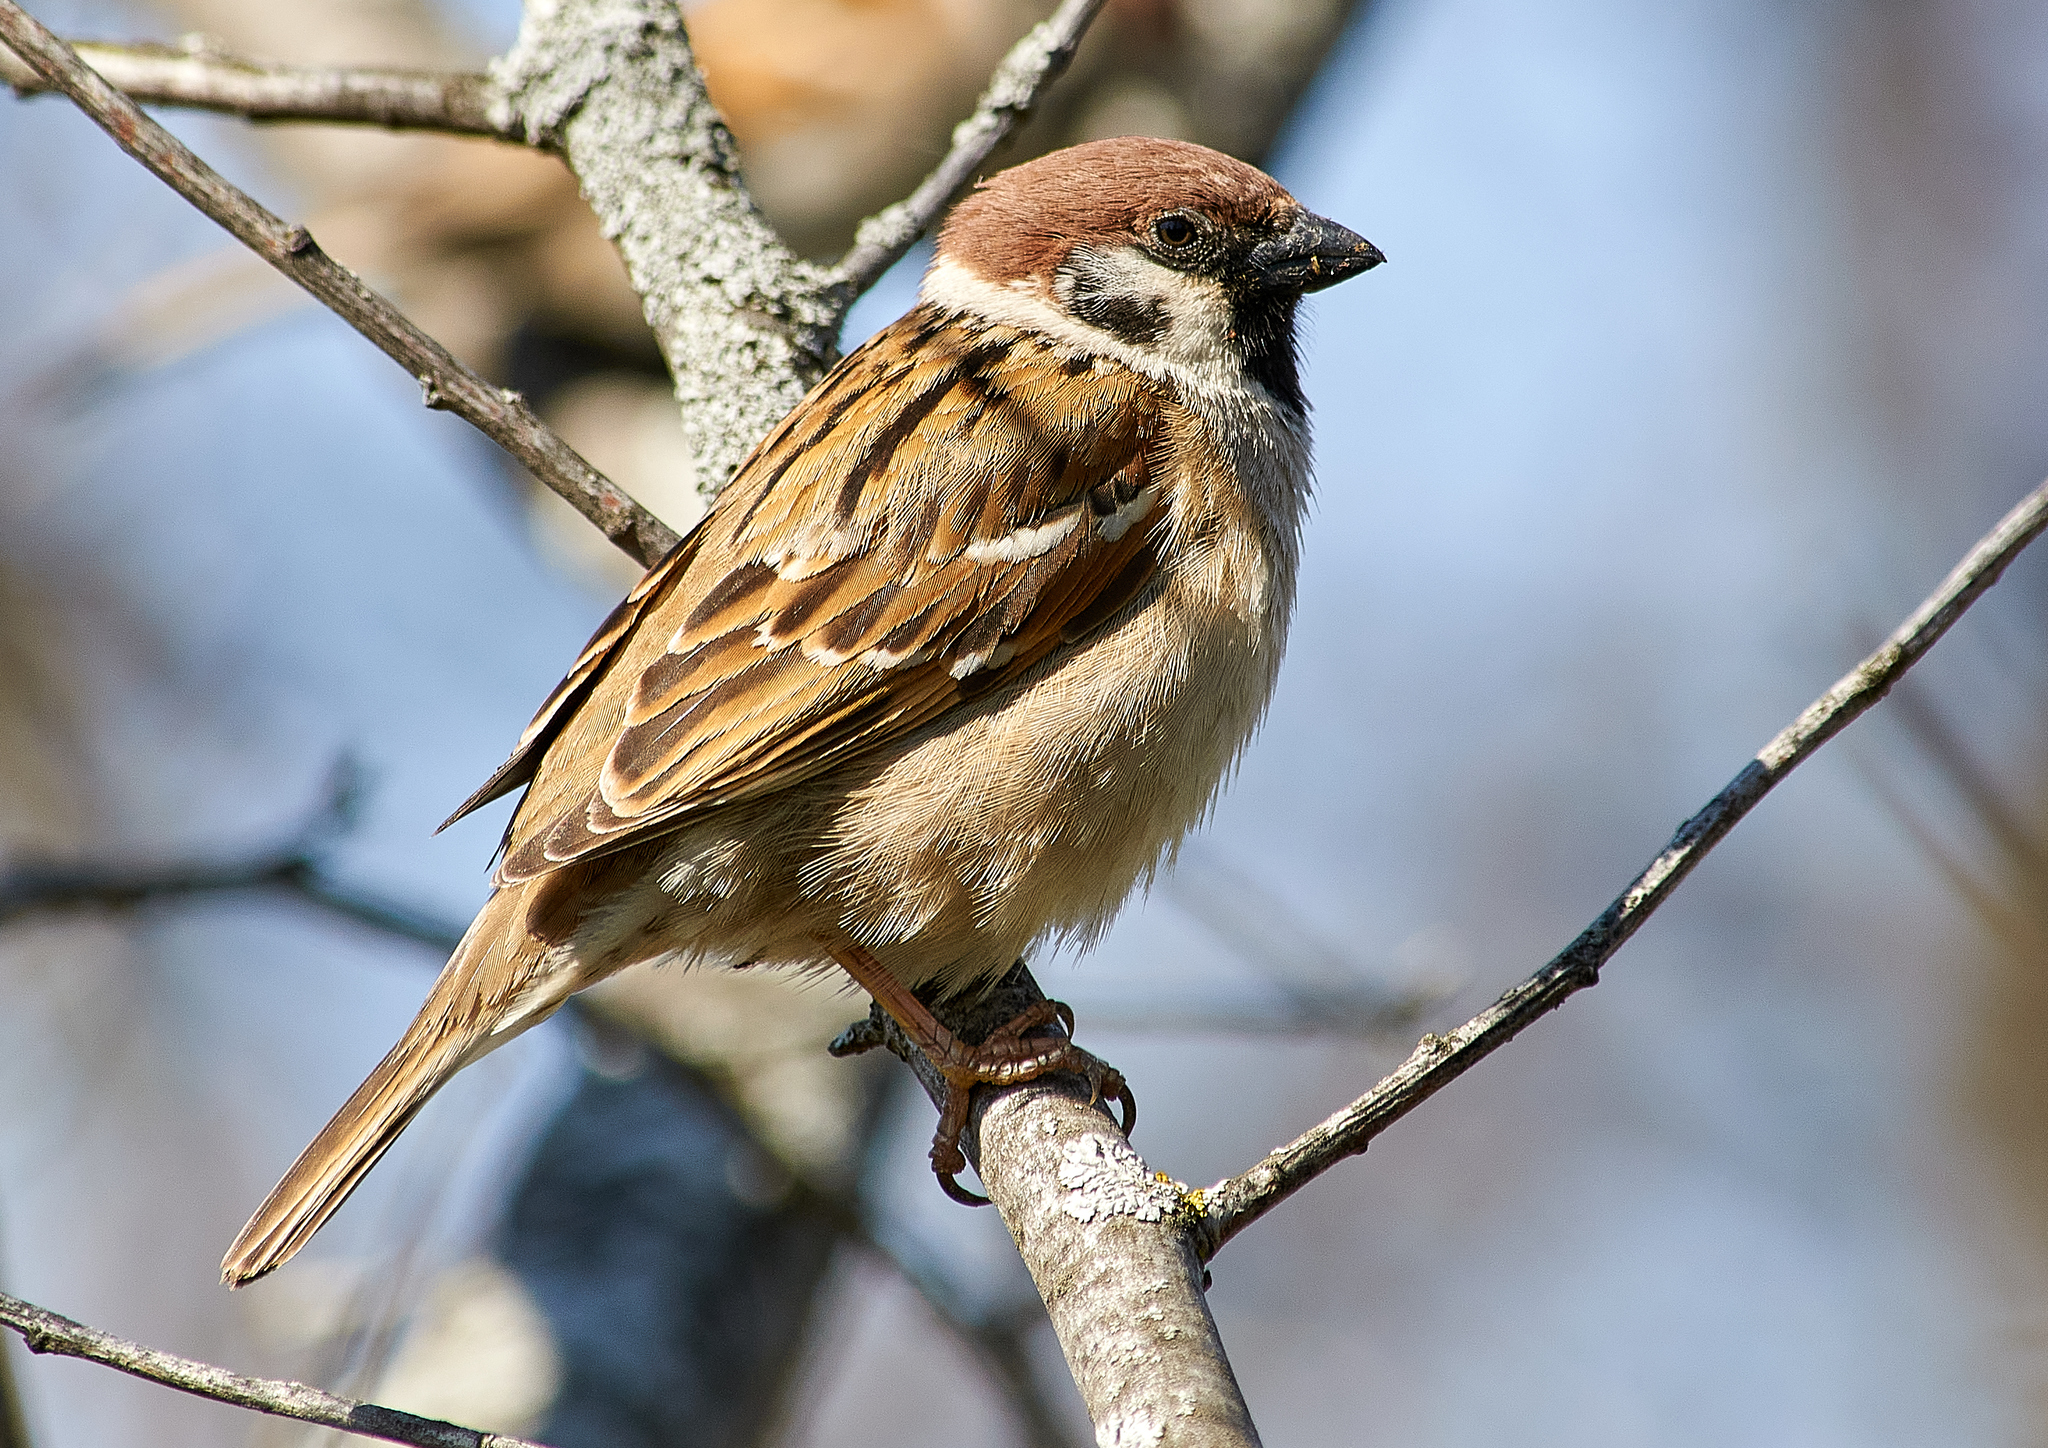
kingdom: Animalia
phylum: Chordata
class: Aves
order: Passeriformes
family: Passeridae
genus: Passer
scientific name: Passer montanus
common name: Eurasian tree sparrow
